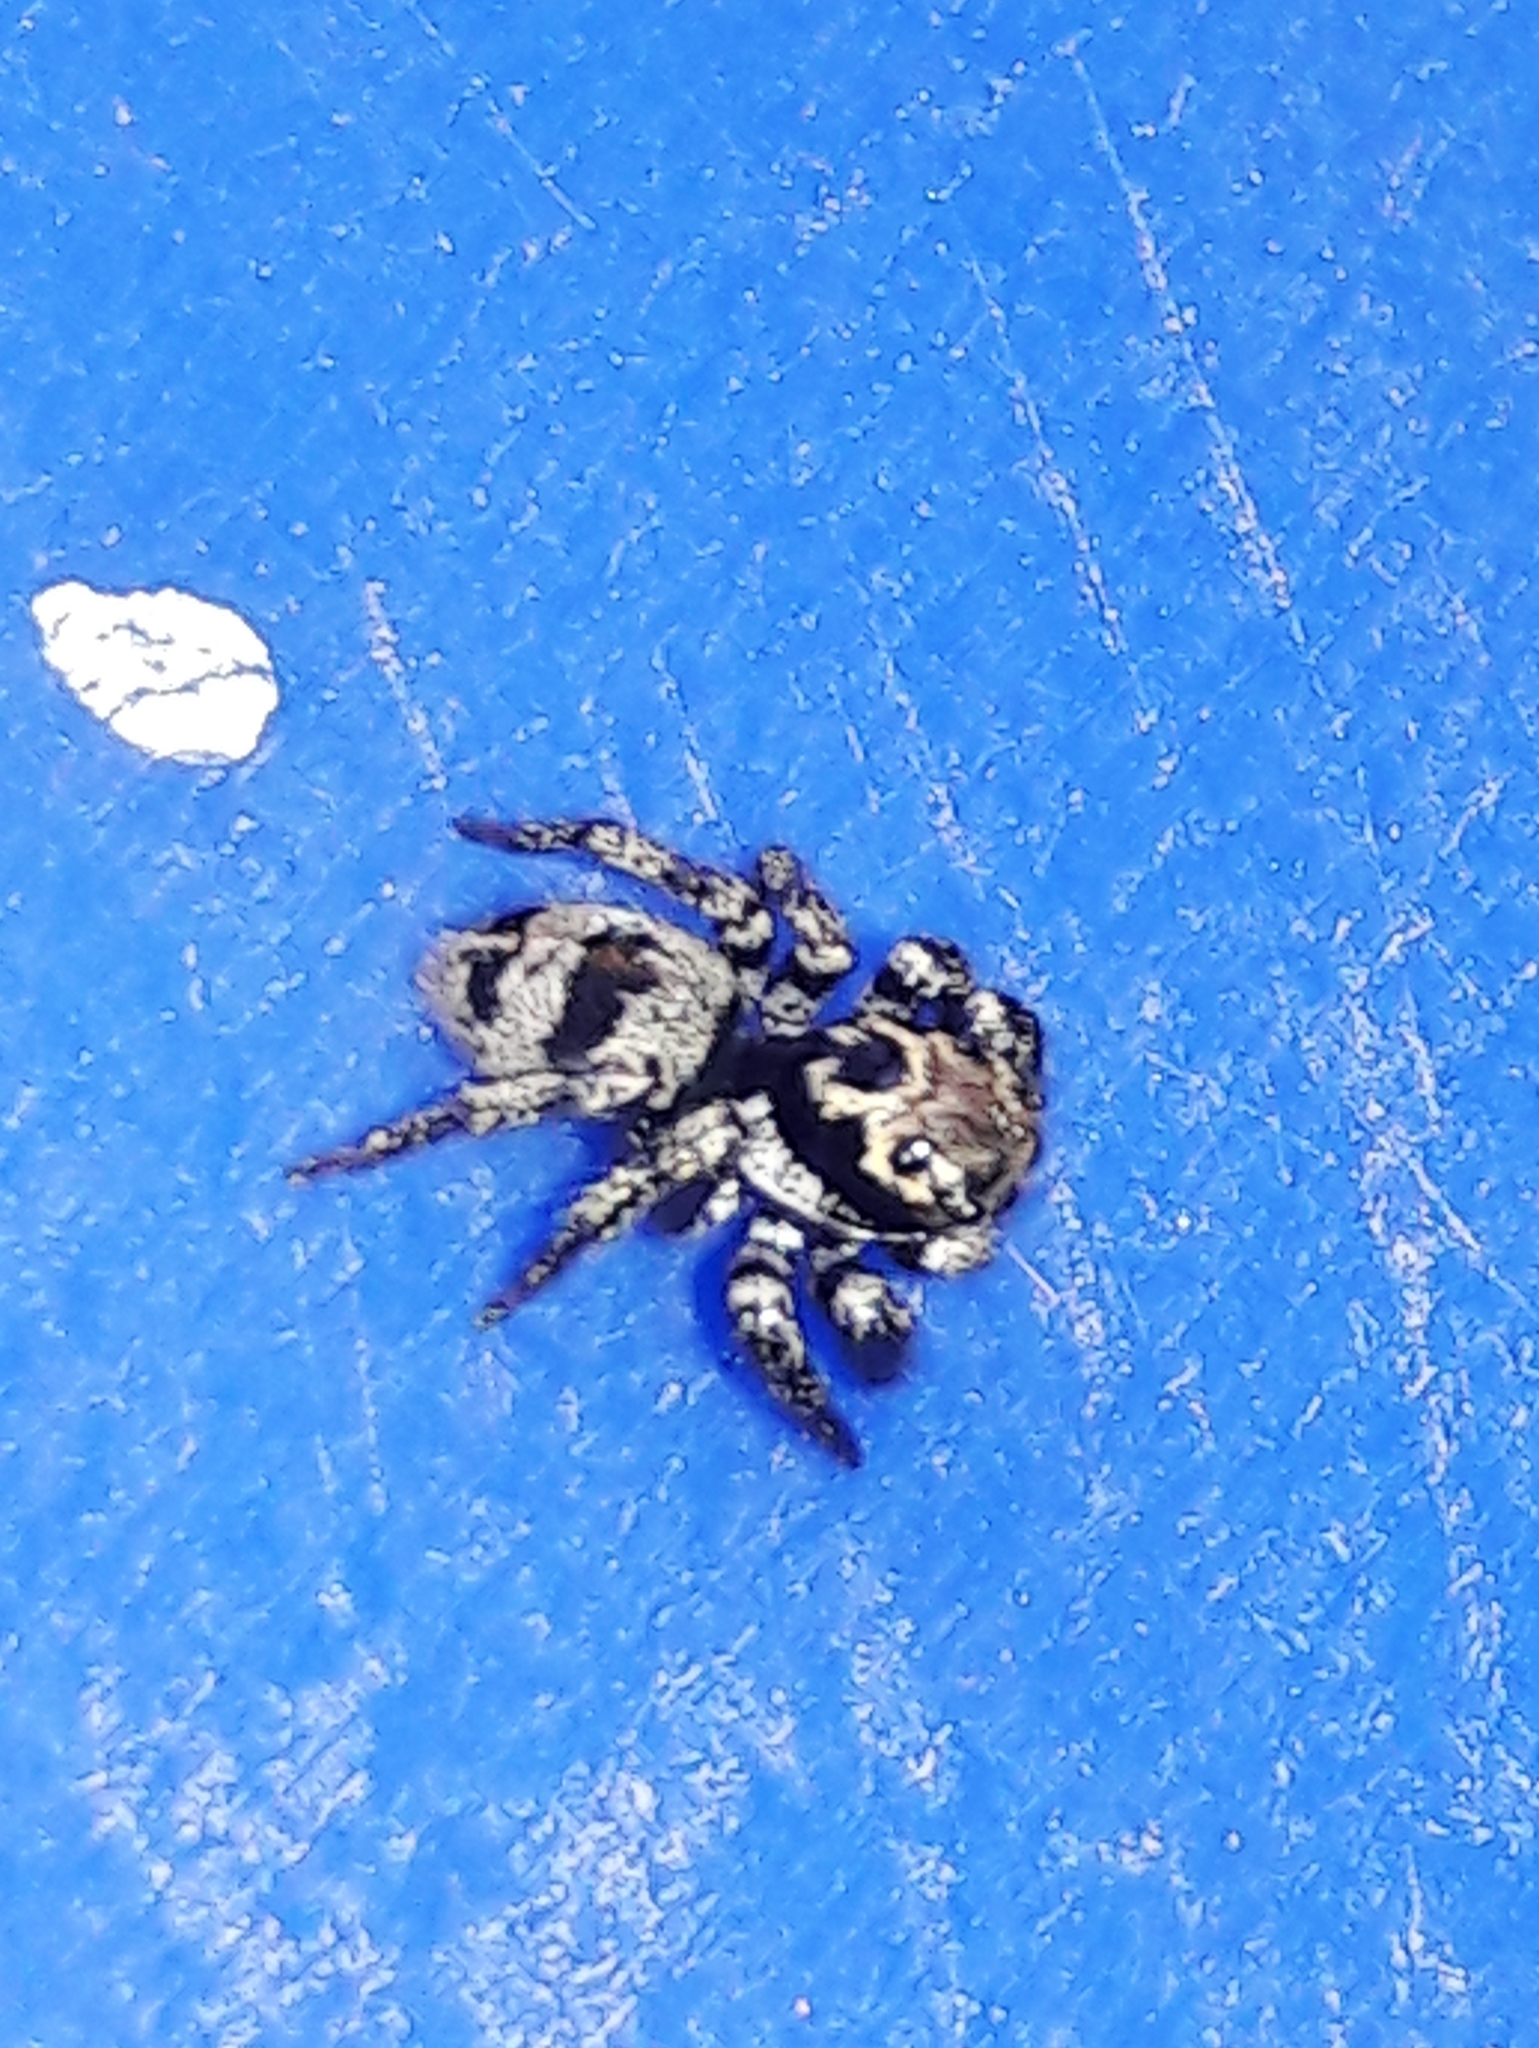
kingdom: Animalia
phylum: Arthropoda
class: Arachnida
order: Araneae
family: Salticidae
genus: Corythalia
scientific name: Corythalia conferta
